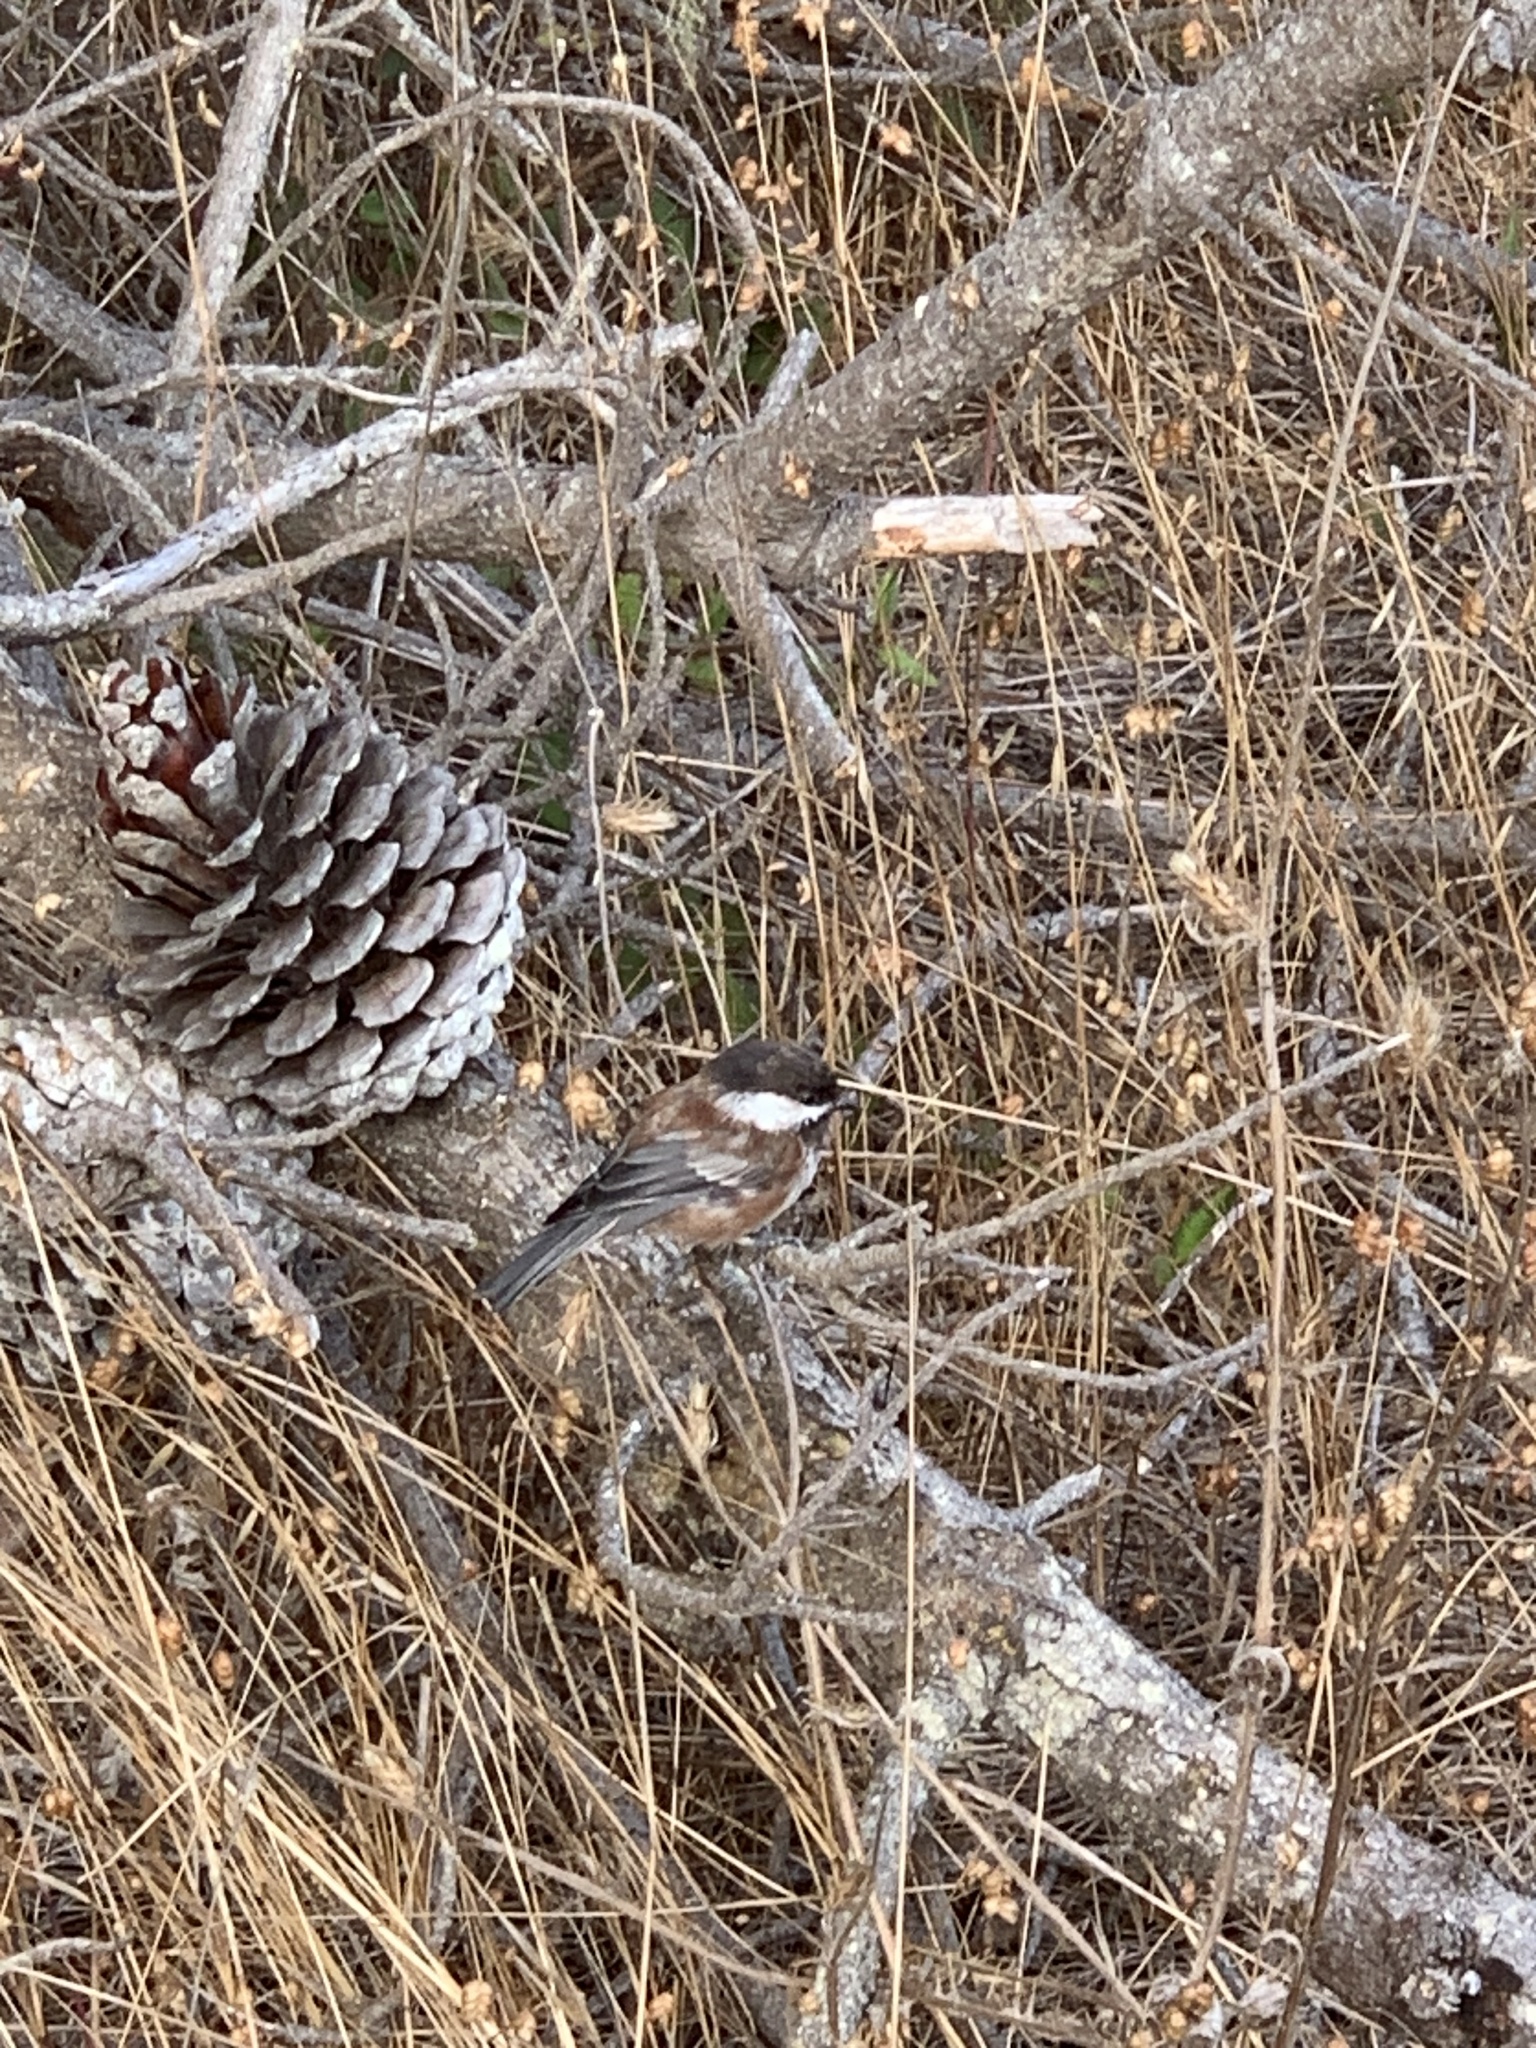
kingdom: Animalia
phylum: Chordata
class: Aves
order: Passeriformes
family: Paridae
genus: Poecile
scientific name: Poecile rufescens
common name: Chestnut-backed chickadee
